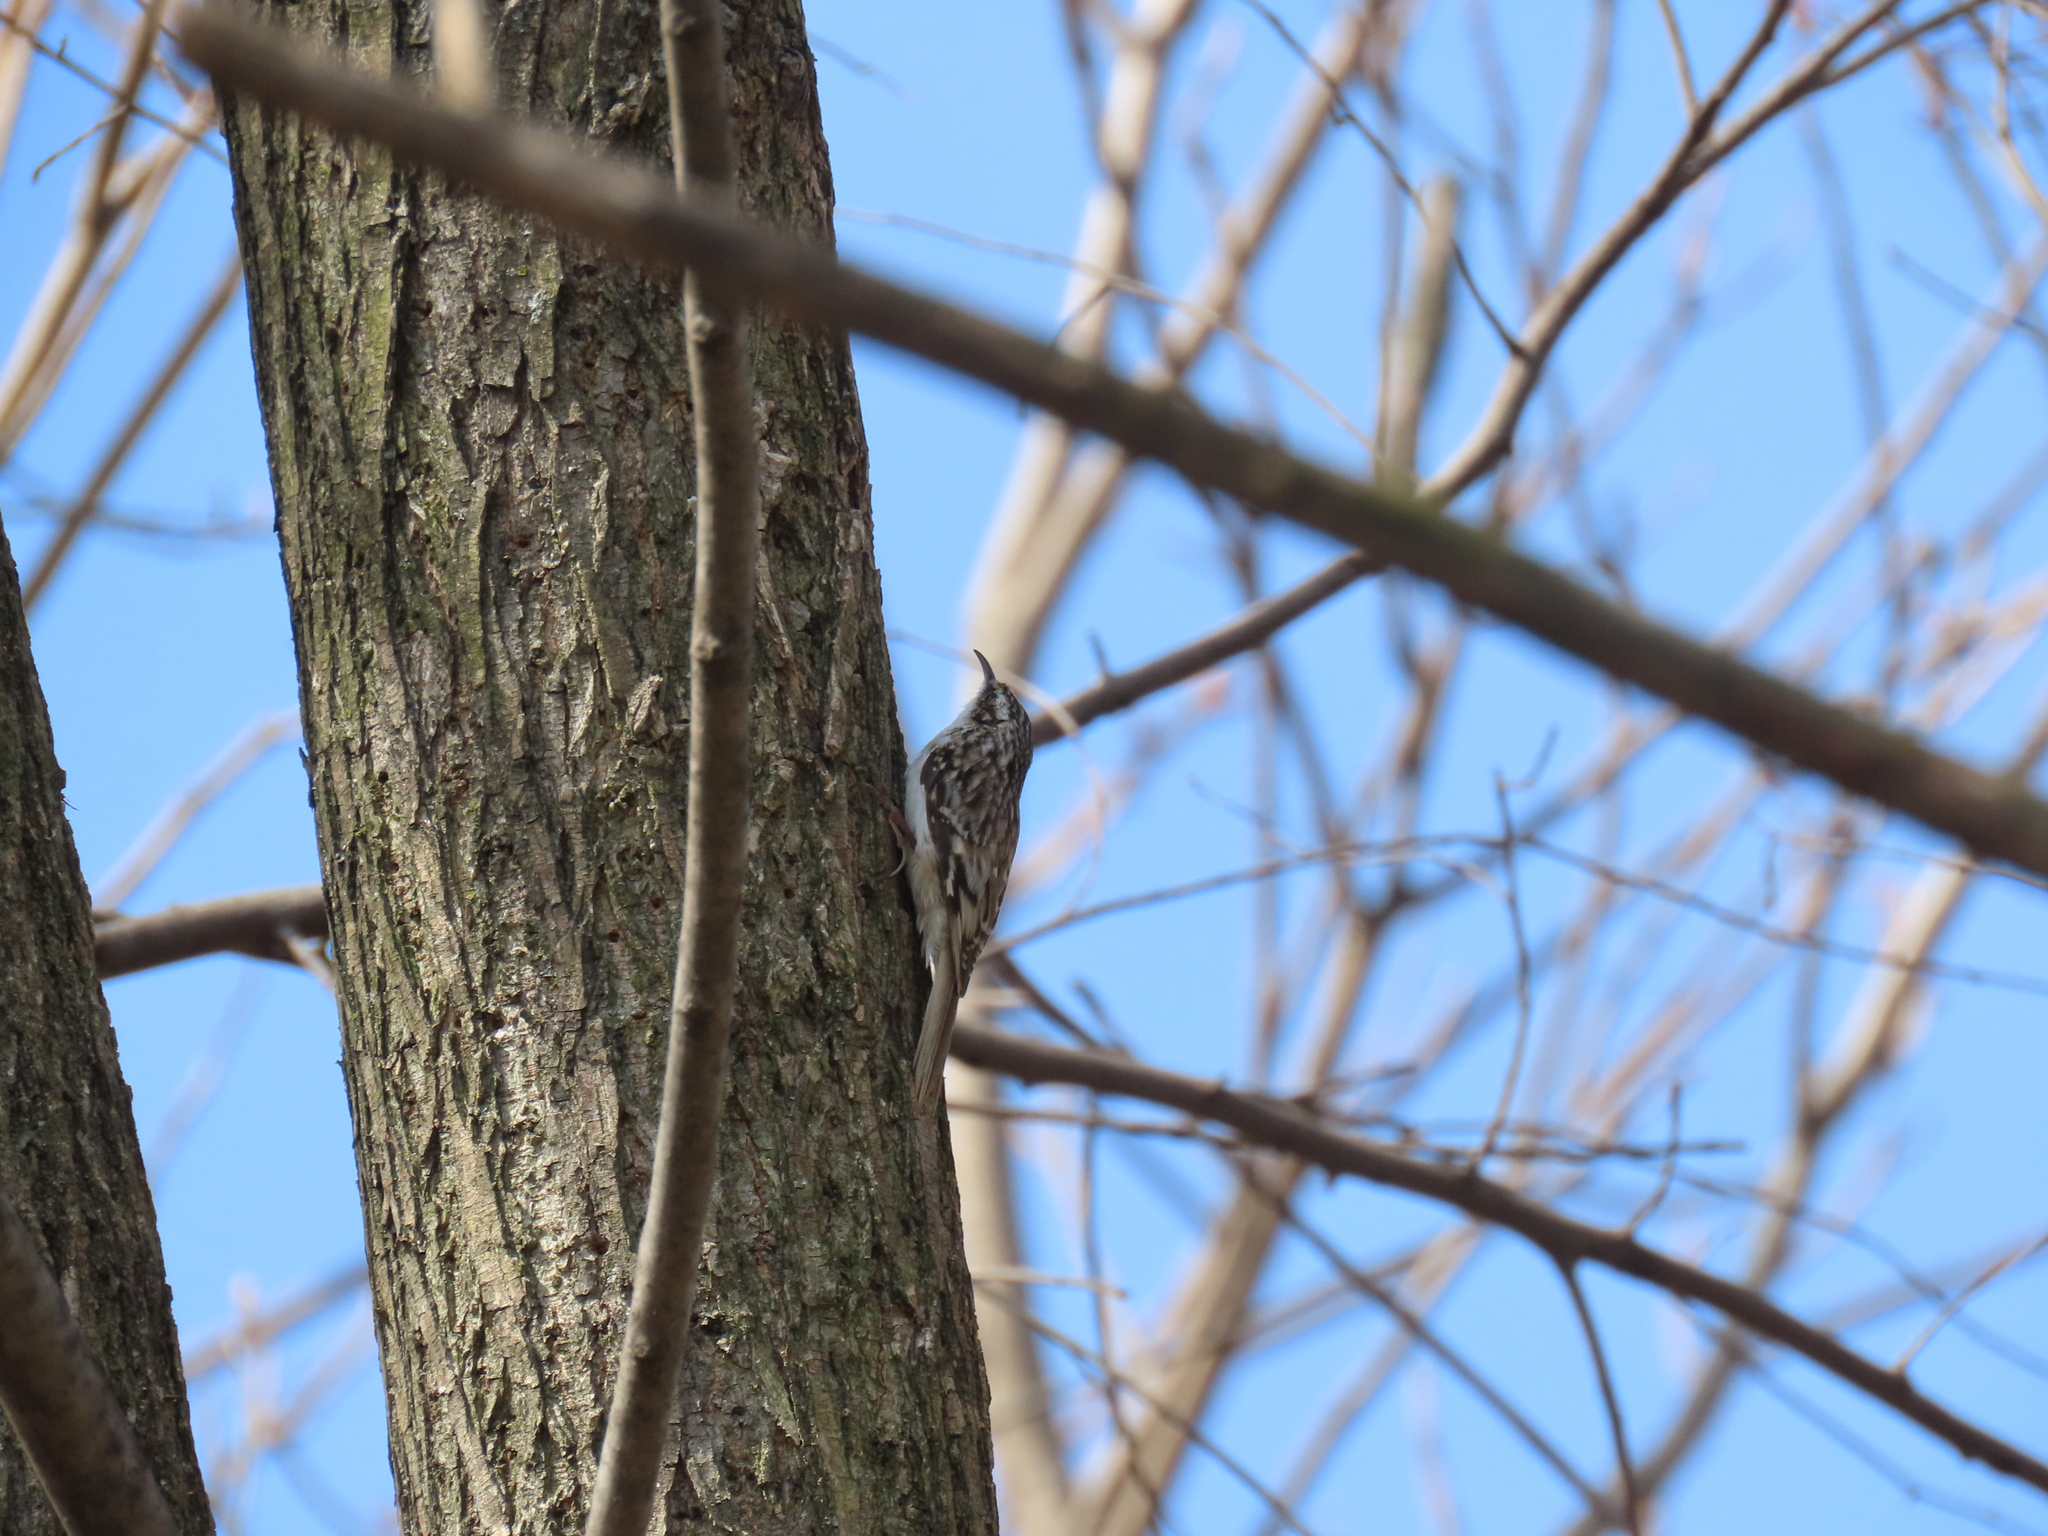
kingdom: Animalia
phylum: Chordata
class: Aves
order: Passeriformes
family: Certhiidae
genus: Certhia
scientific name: Certhia americana
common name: Brown creeper
